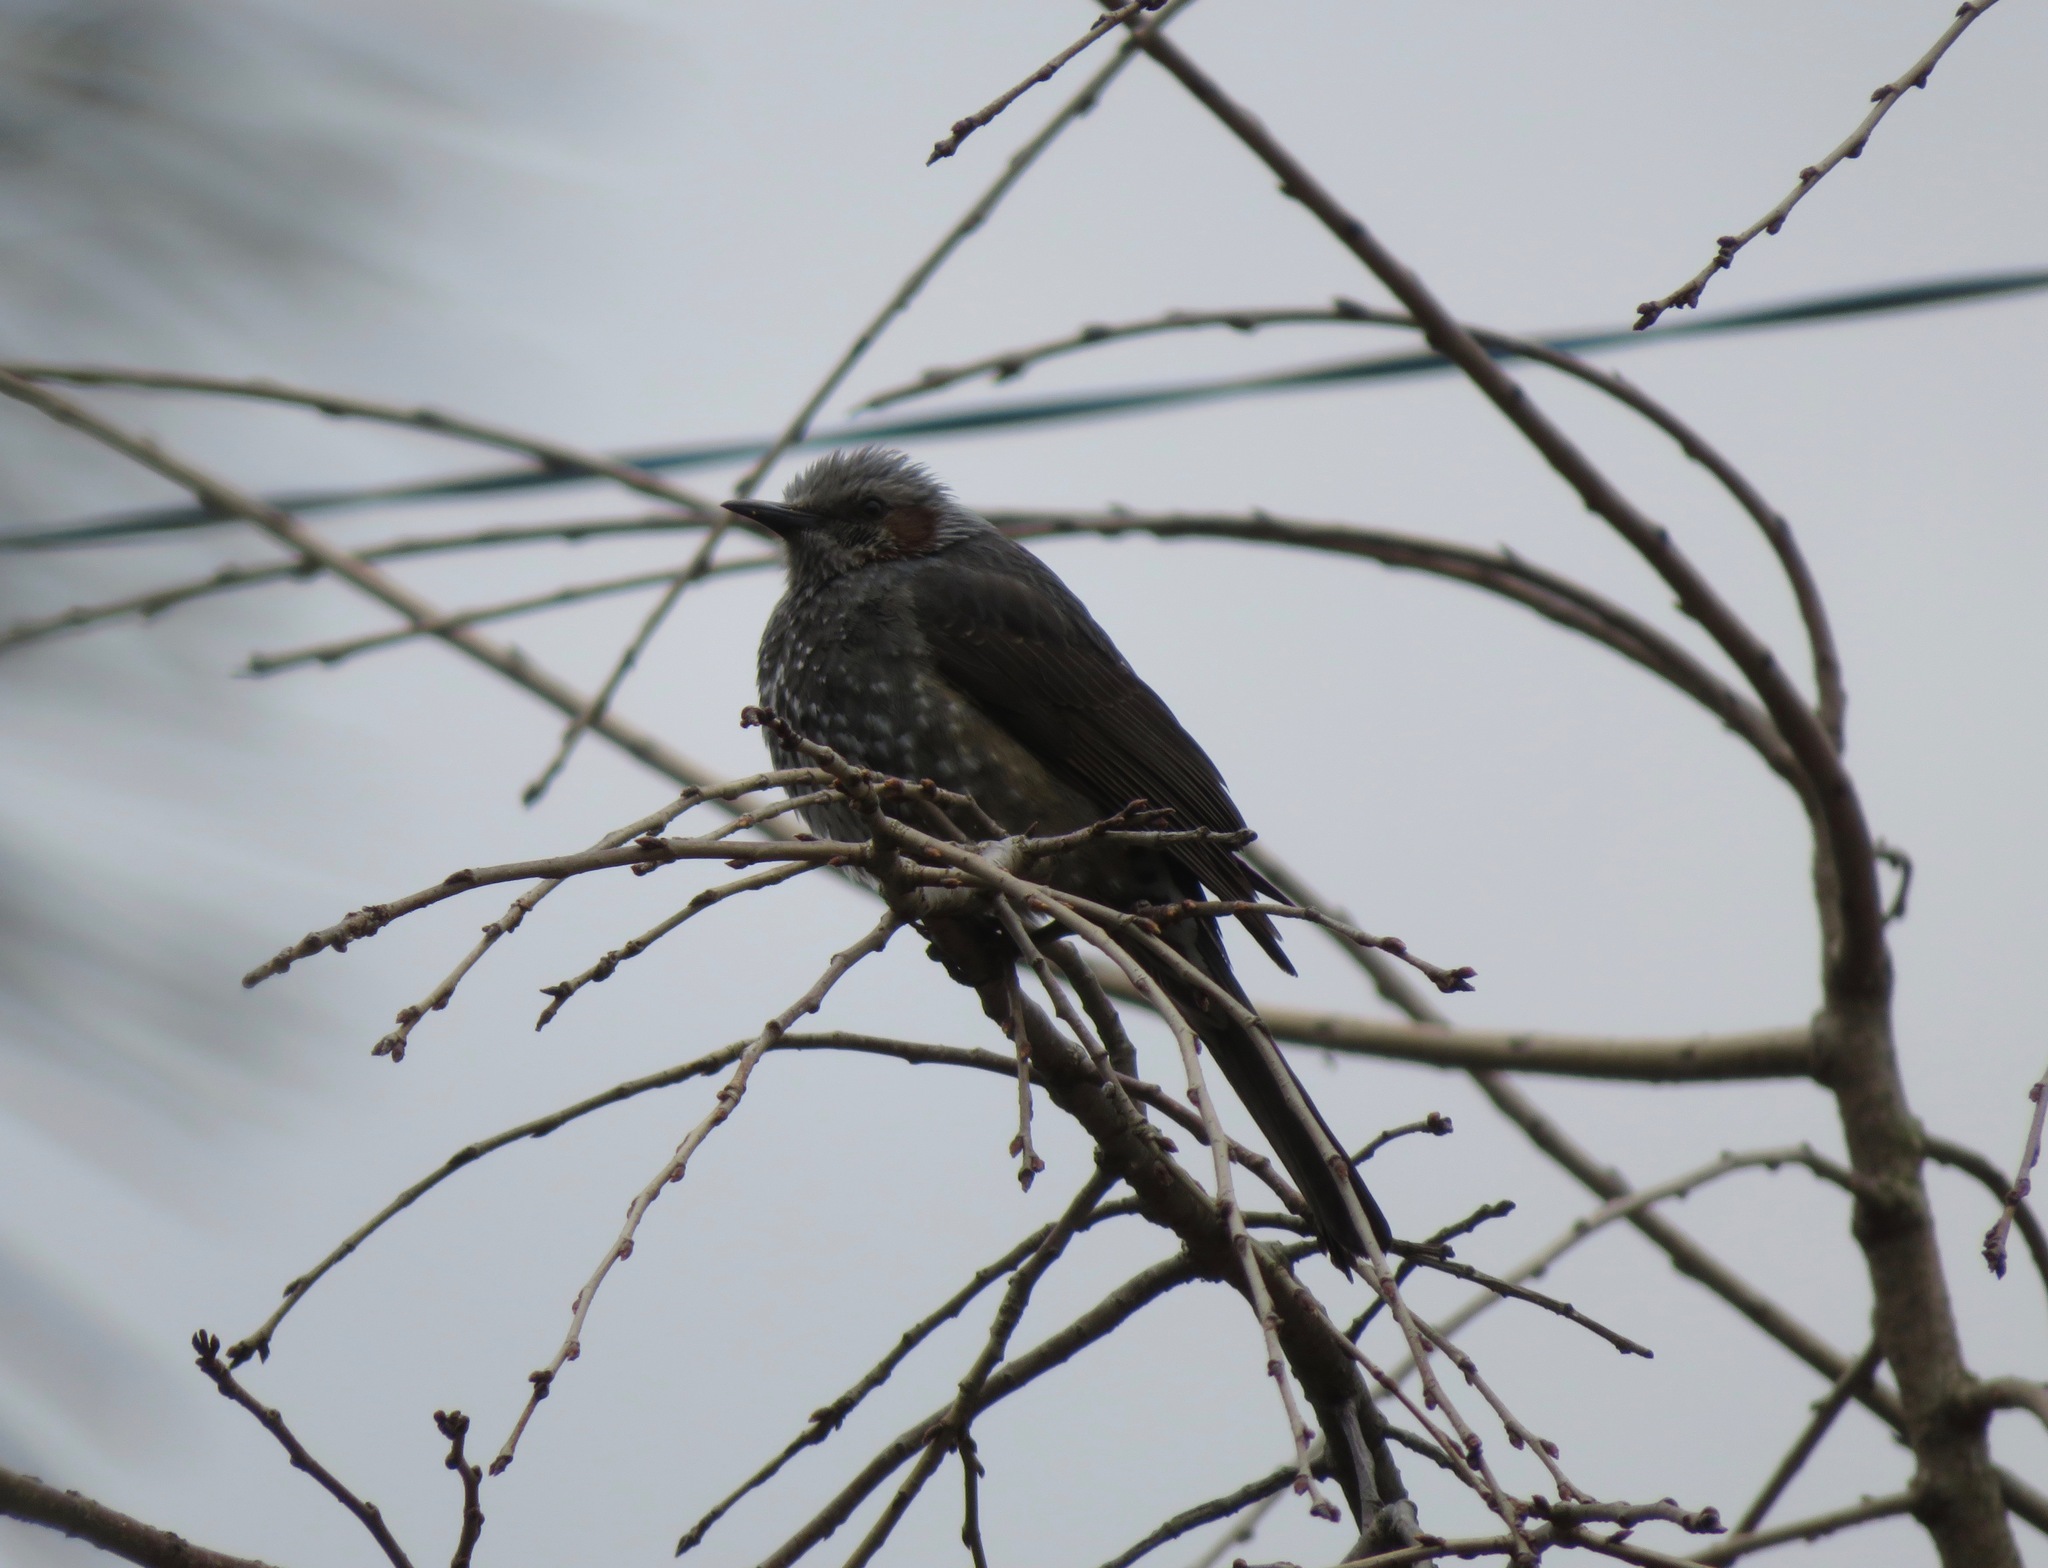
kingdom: Animalia
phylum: Chordata
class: Aves
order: Passeriformes
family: Pycnonotidae
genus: Hypsipetes
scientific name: Hypsipetes amaurotis
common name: Brown-eared bulbul
